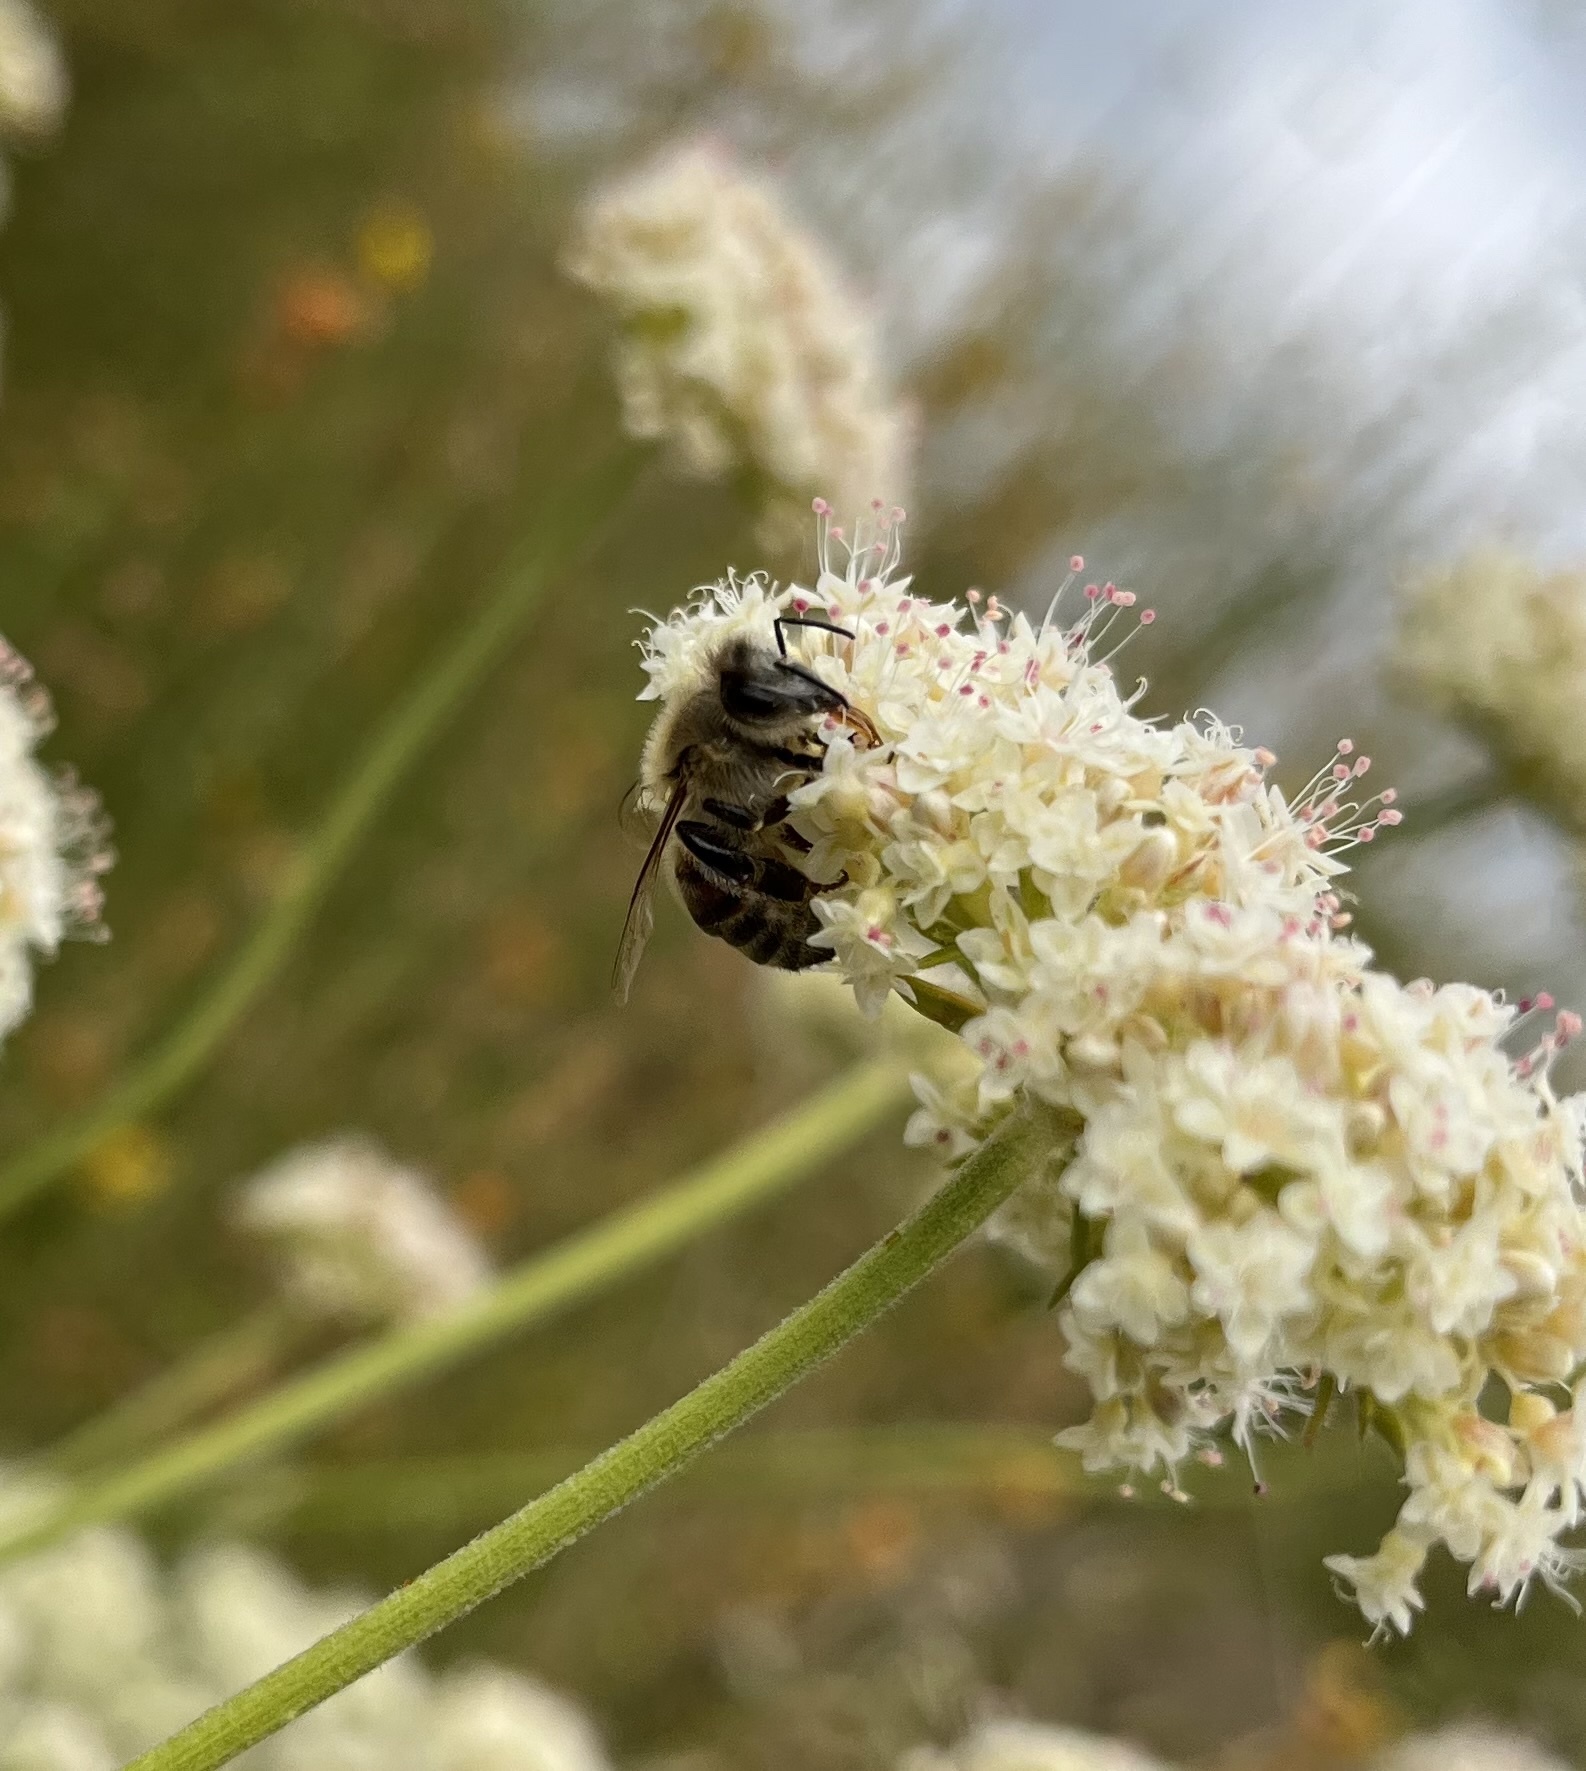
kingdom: Animalia
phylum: Arthropoda
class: Insecta
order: Hymenoptera
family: Apidae
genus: Apis
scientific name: Apis mellifera
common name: Honey bee
